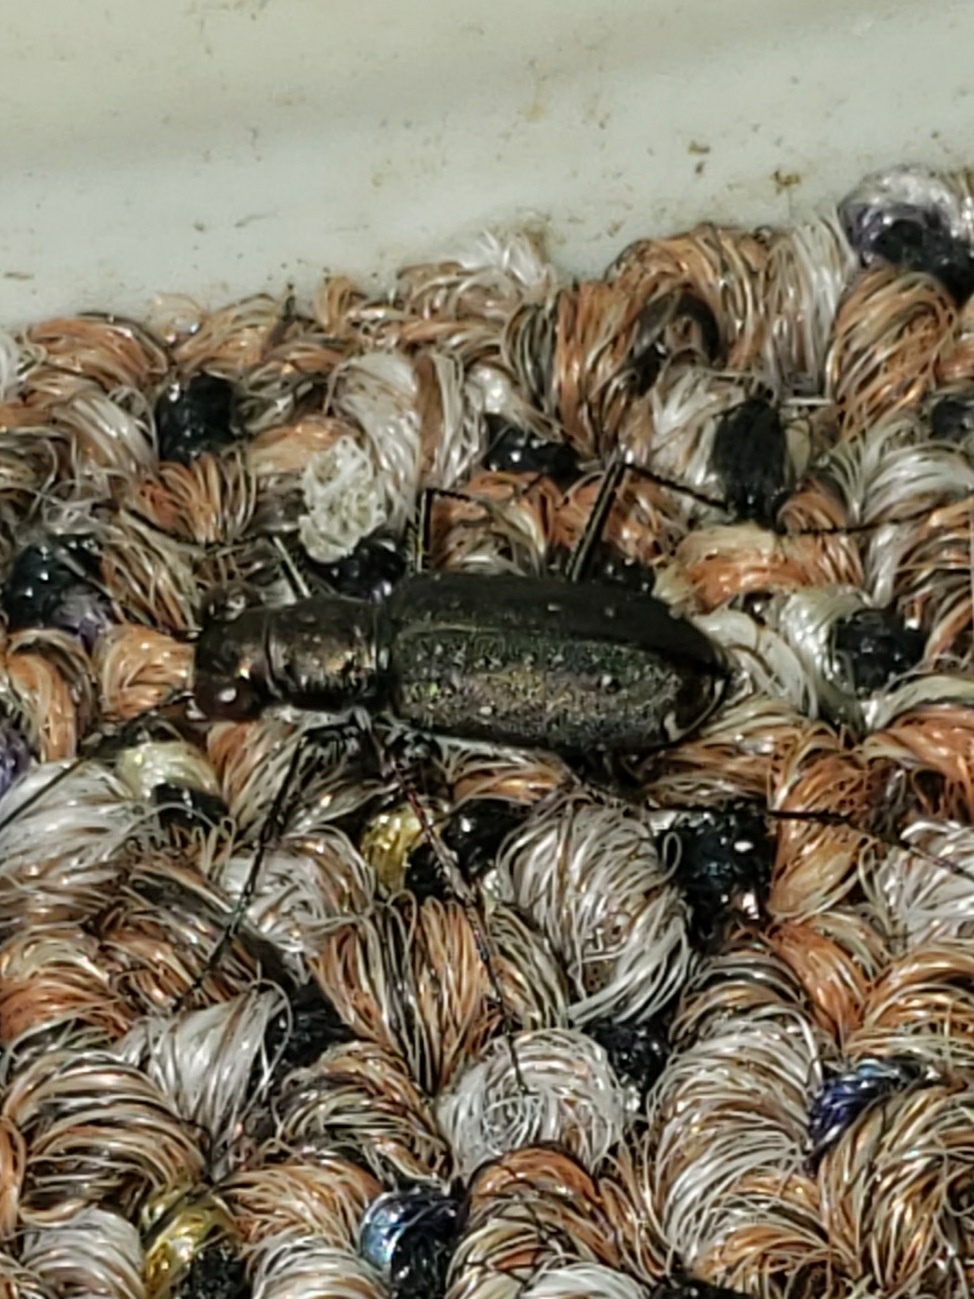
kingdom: Animalia
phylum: Arthropoda
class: Insecta
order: Coleoptera
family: Carabidae
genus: Cicindela
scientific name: Cicindela punctulata
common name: Punctured tiger beetle
